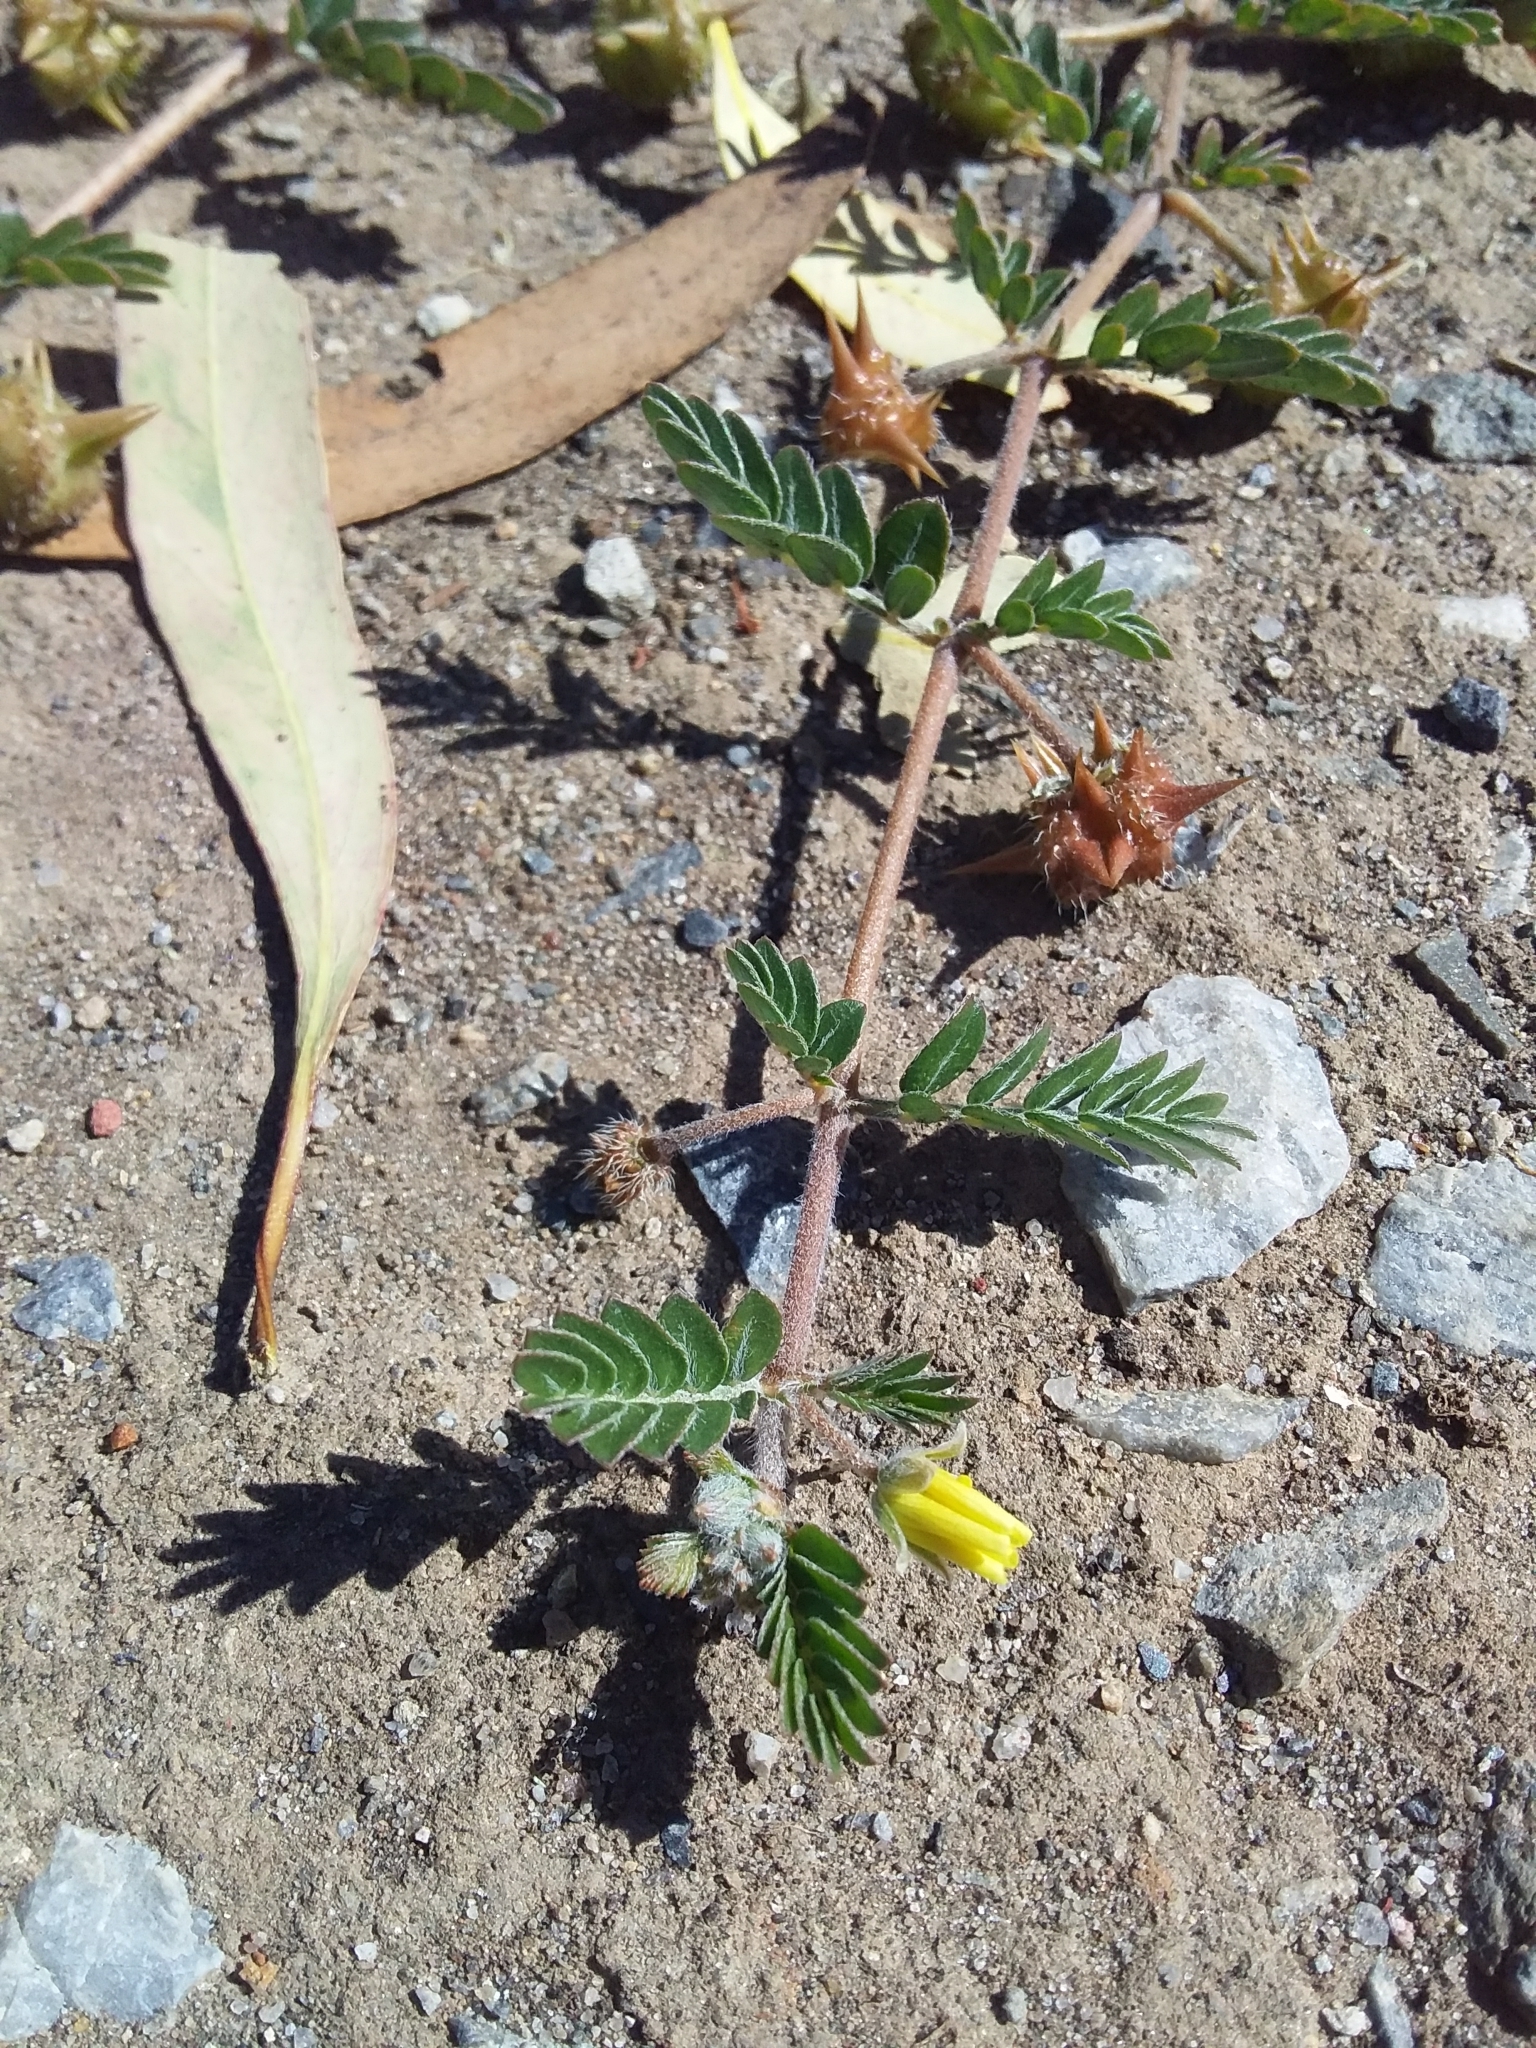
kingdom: Plantae
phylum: Tracheophyta
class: Magnoliopsida
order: Zygophyllales
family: Zygophyllaceae
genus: Tribulus
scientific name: Tribulus terrestris
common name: Puncturevine
